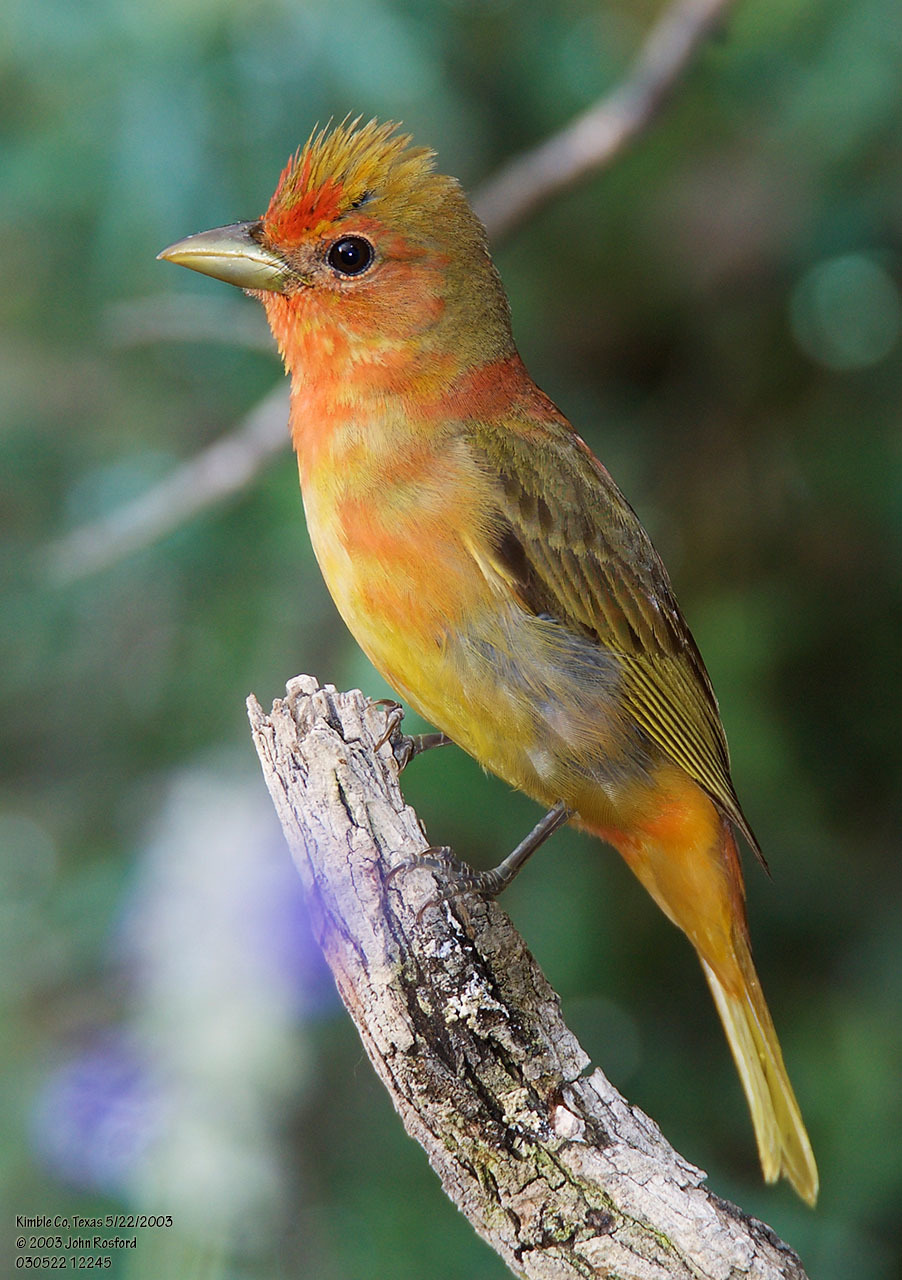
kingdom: Animalia
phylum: Chordata
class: Aves
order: Passeriformes
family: Cardinalidae
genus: Piranga
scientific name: Piranga rubra
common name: Summer tanager
